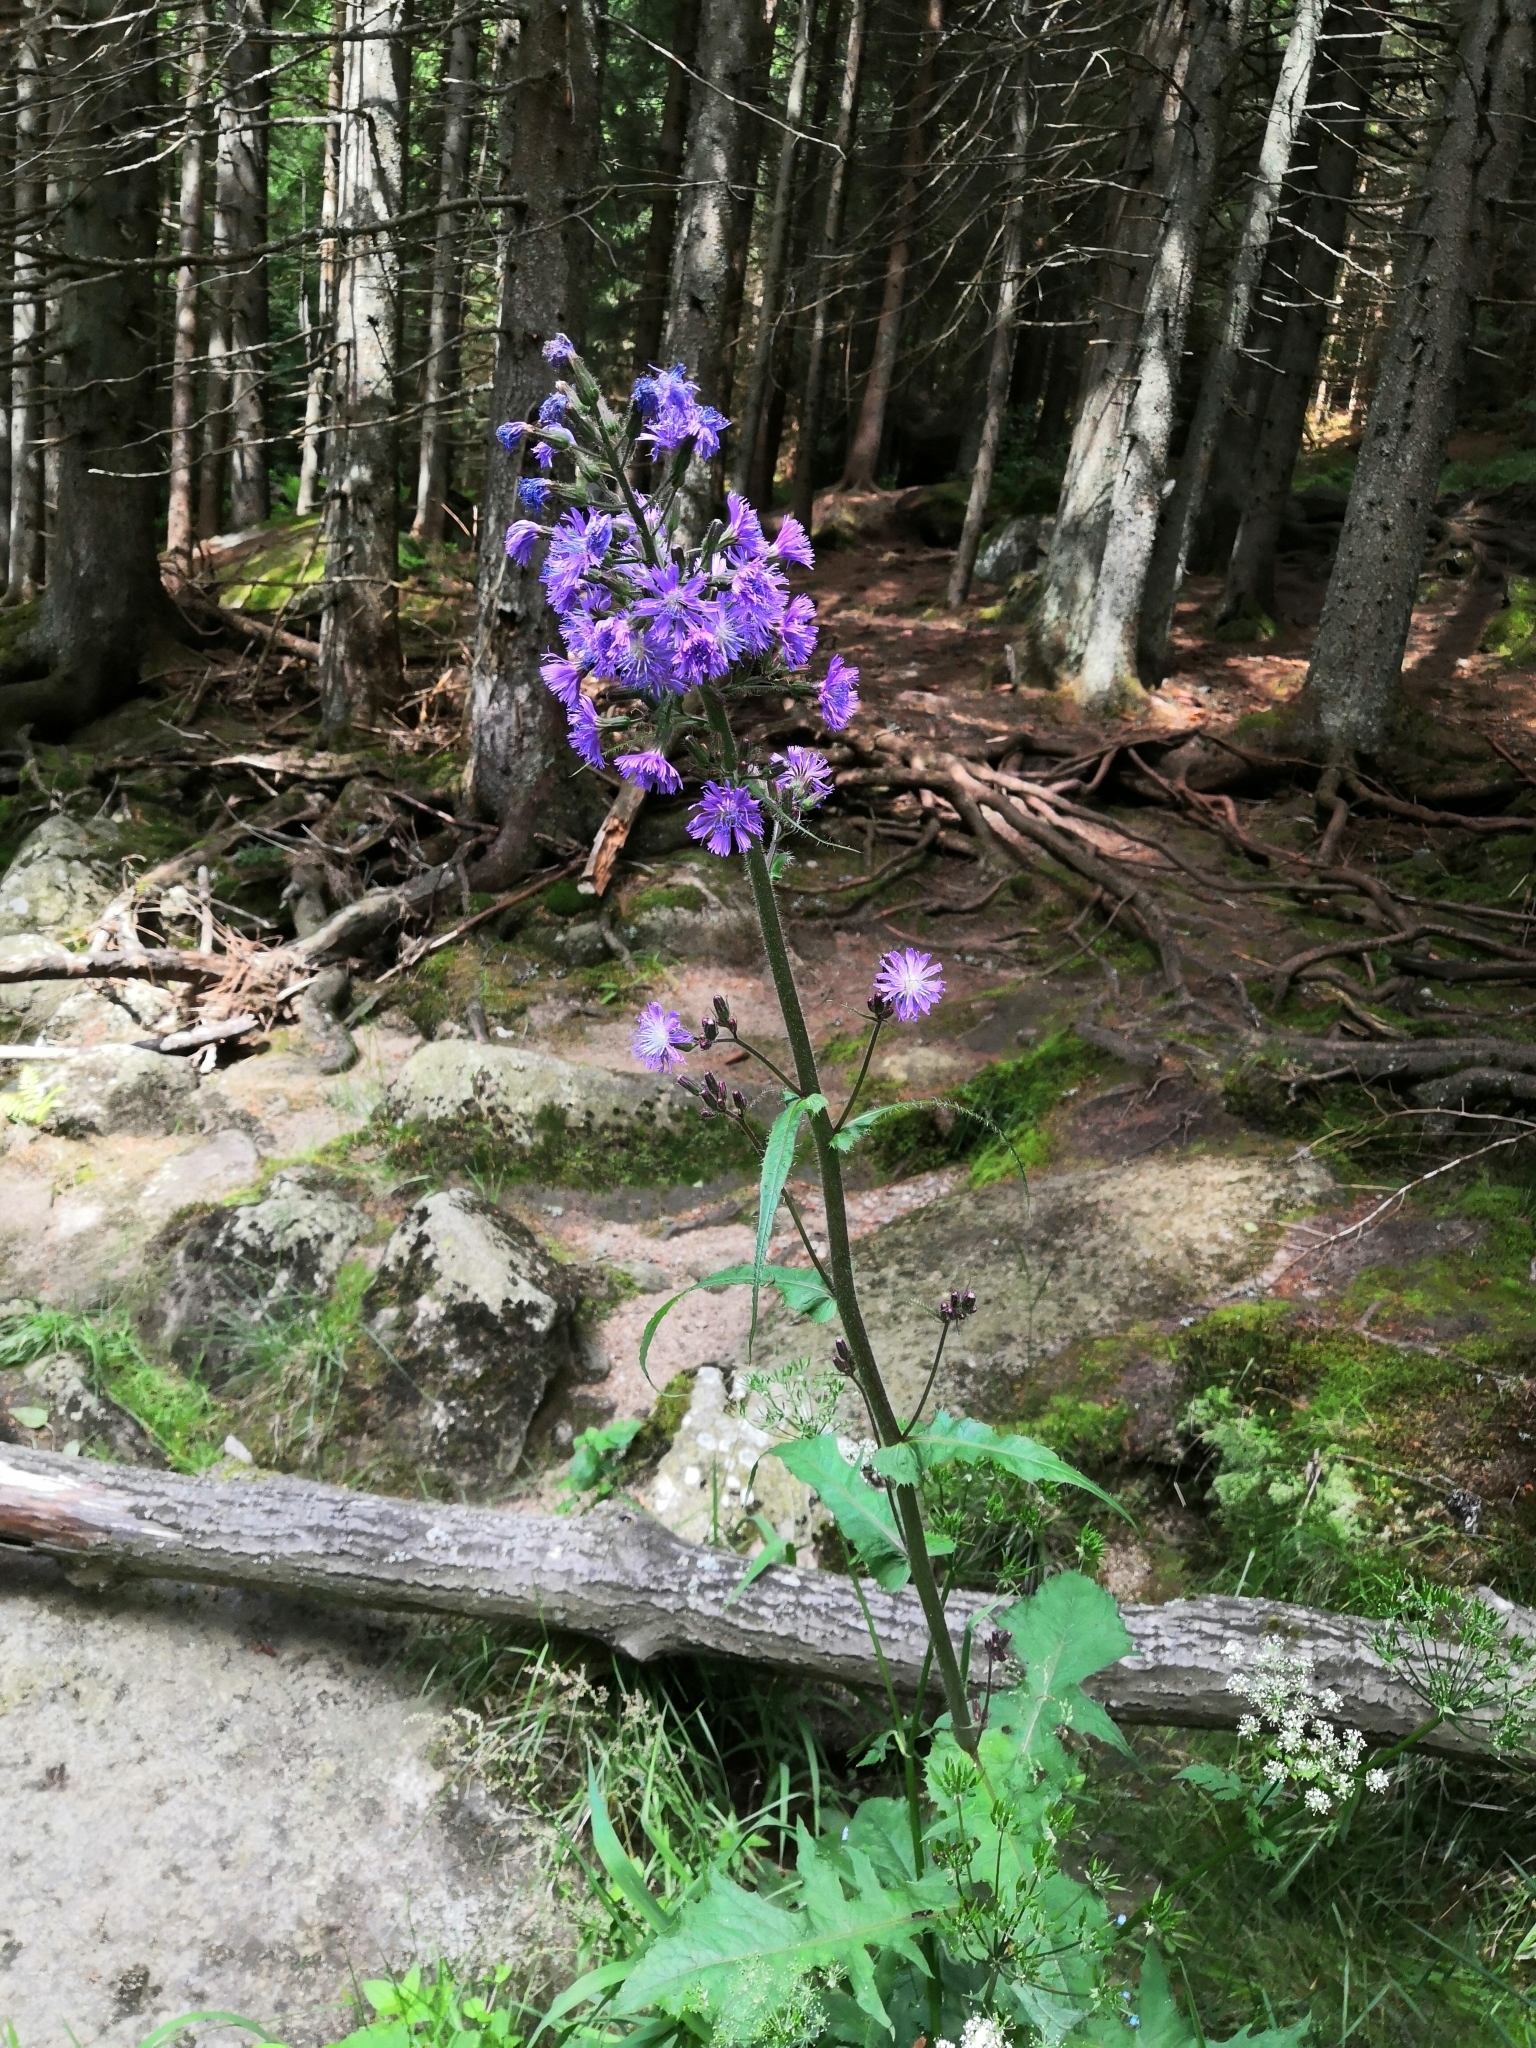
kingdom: Plantae
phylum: Tracheophyta
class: Magnoliopsida
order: Asterales
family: Asteraceae
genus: Cicerbita
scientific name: Cicerbita alpina
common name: Alpine blue-sow-thistle
